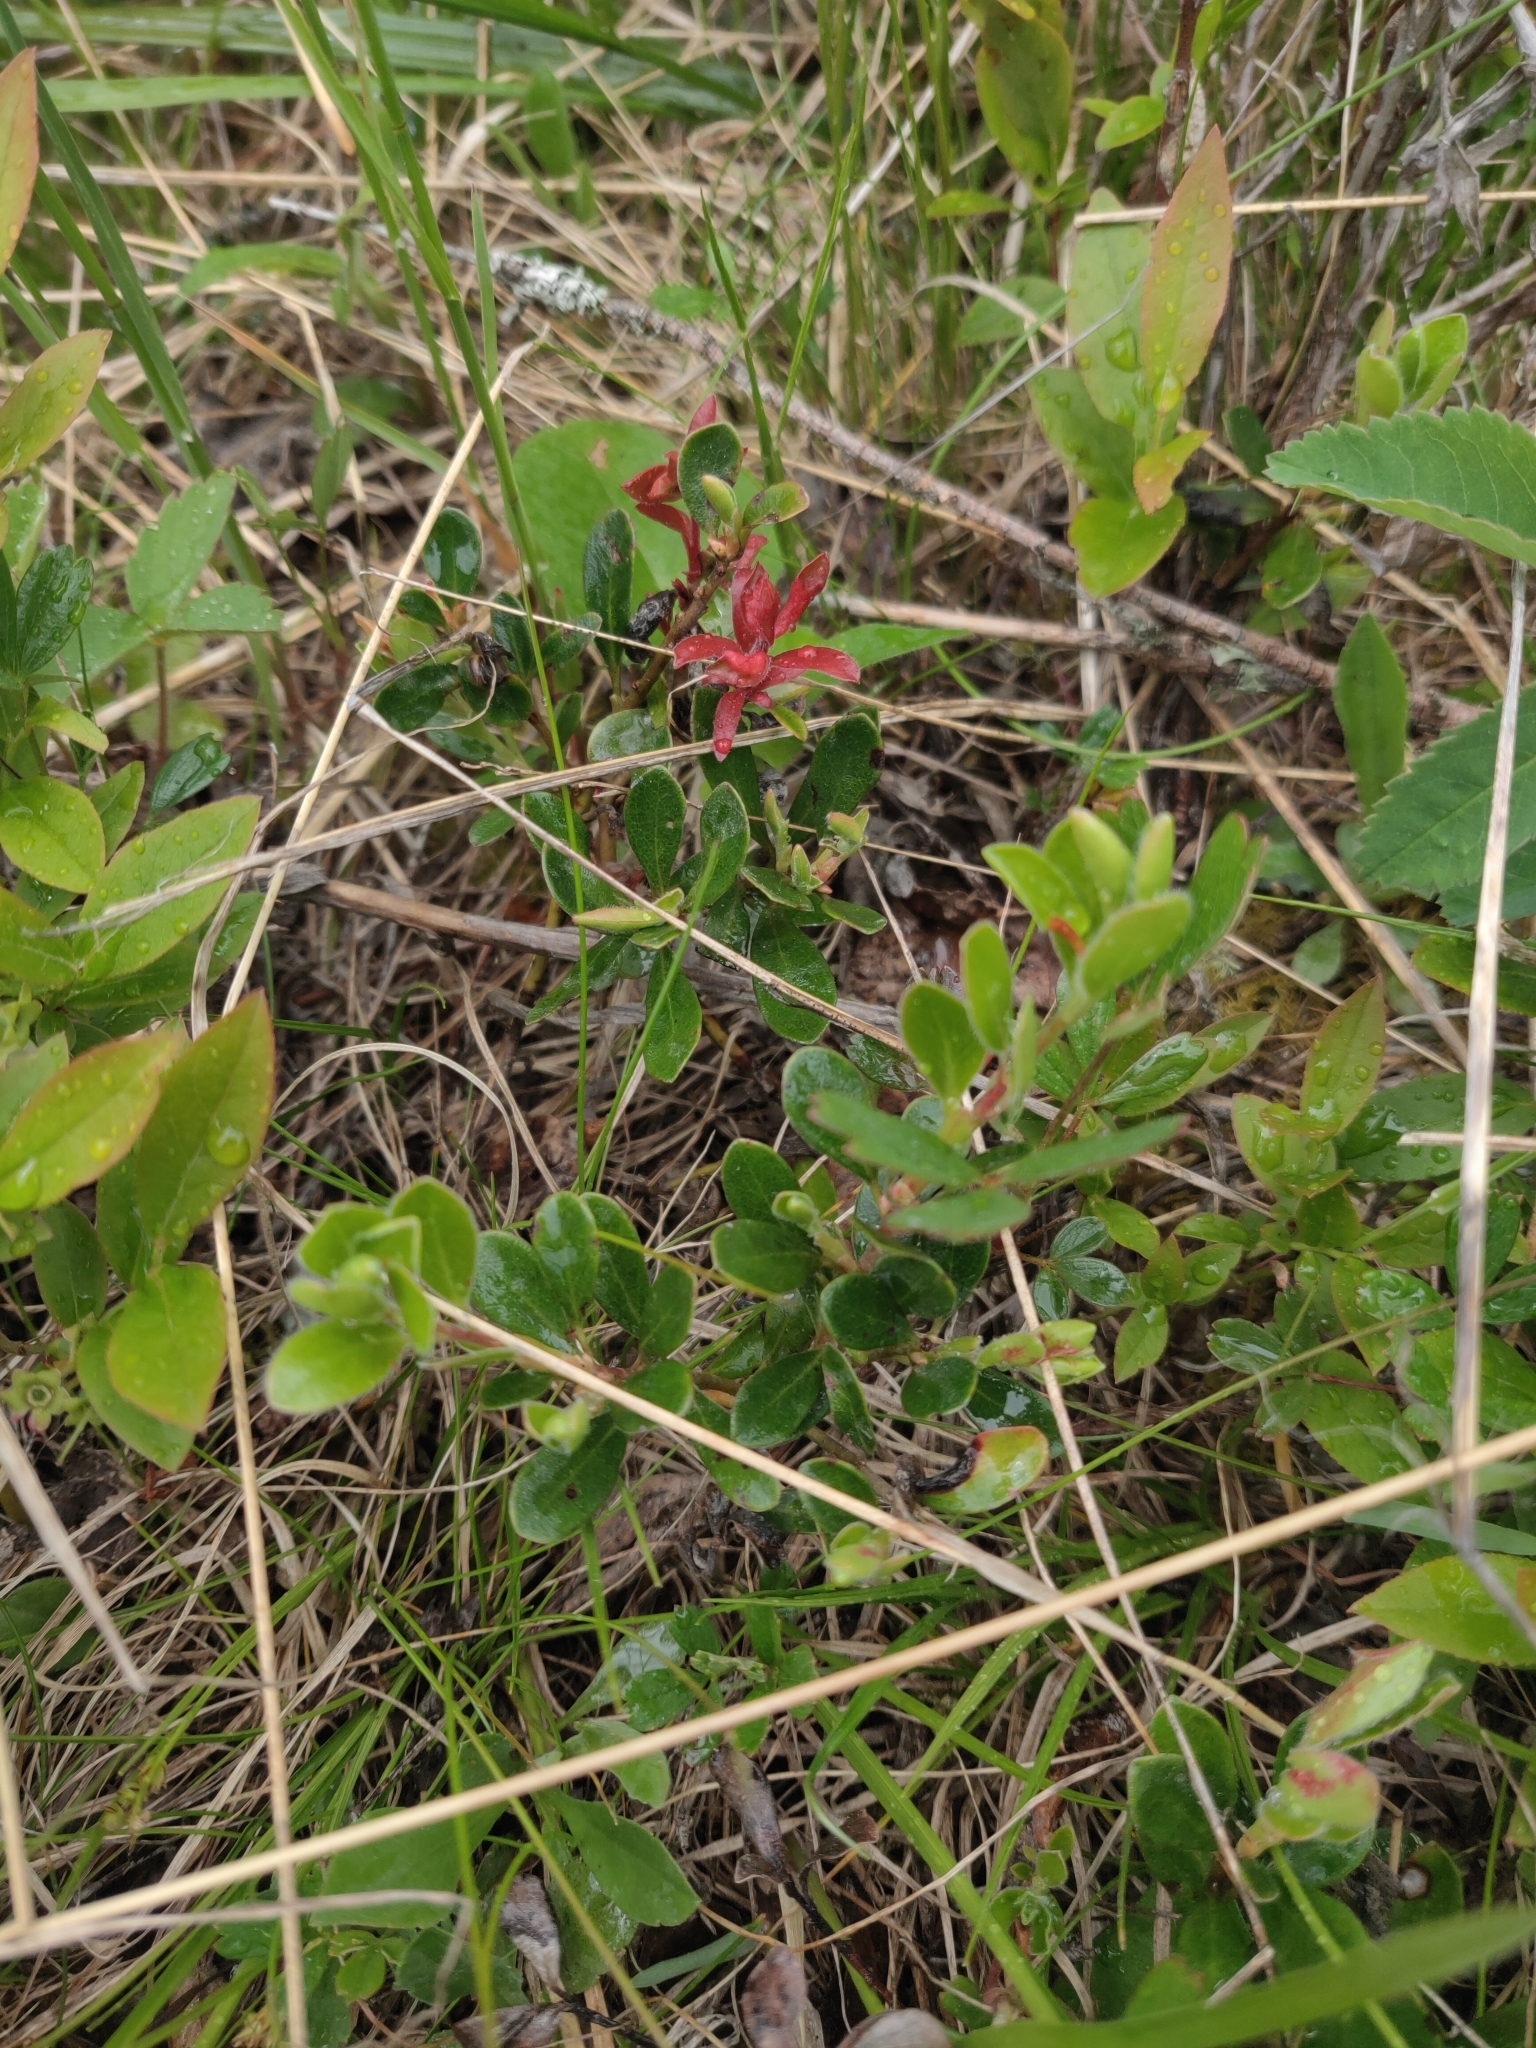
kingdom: Plantae
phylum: Tracheophyta
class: Magnoliopsida
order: Ericales
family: Ericaceae
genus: Arctostaphylos
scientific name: Arctostaphylos uva-ursi
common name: Bearberry
